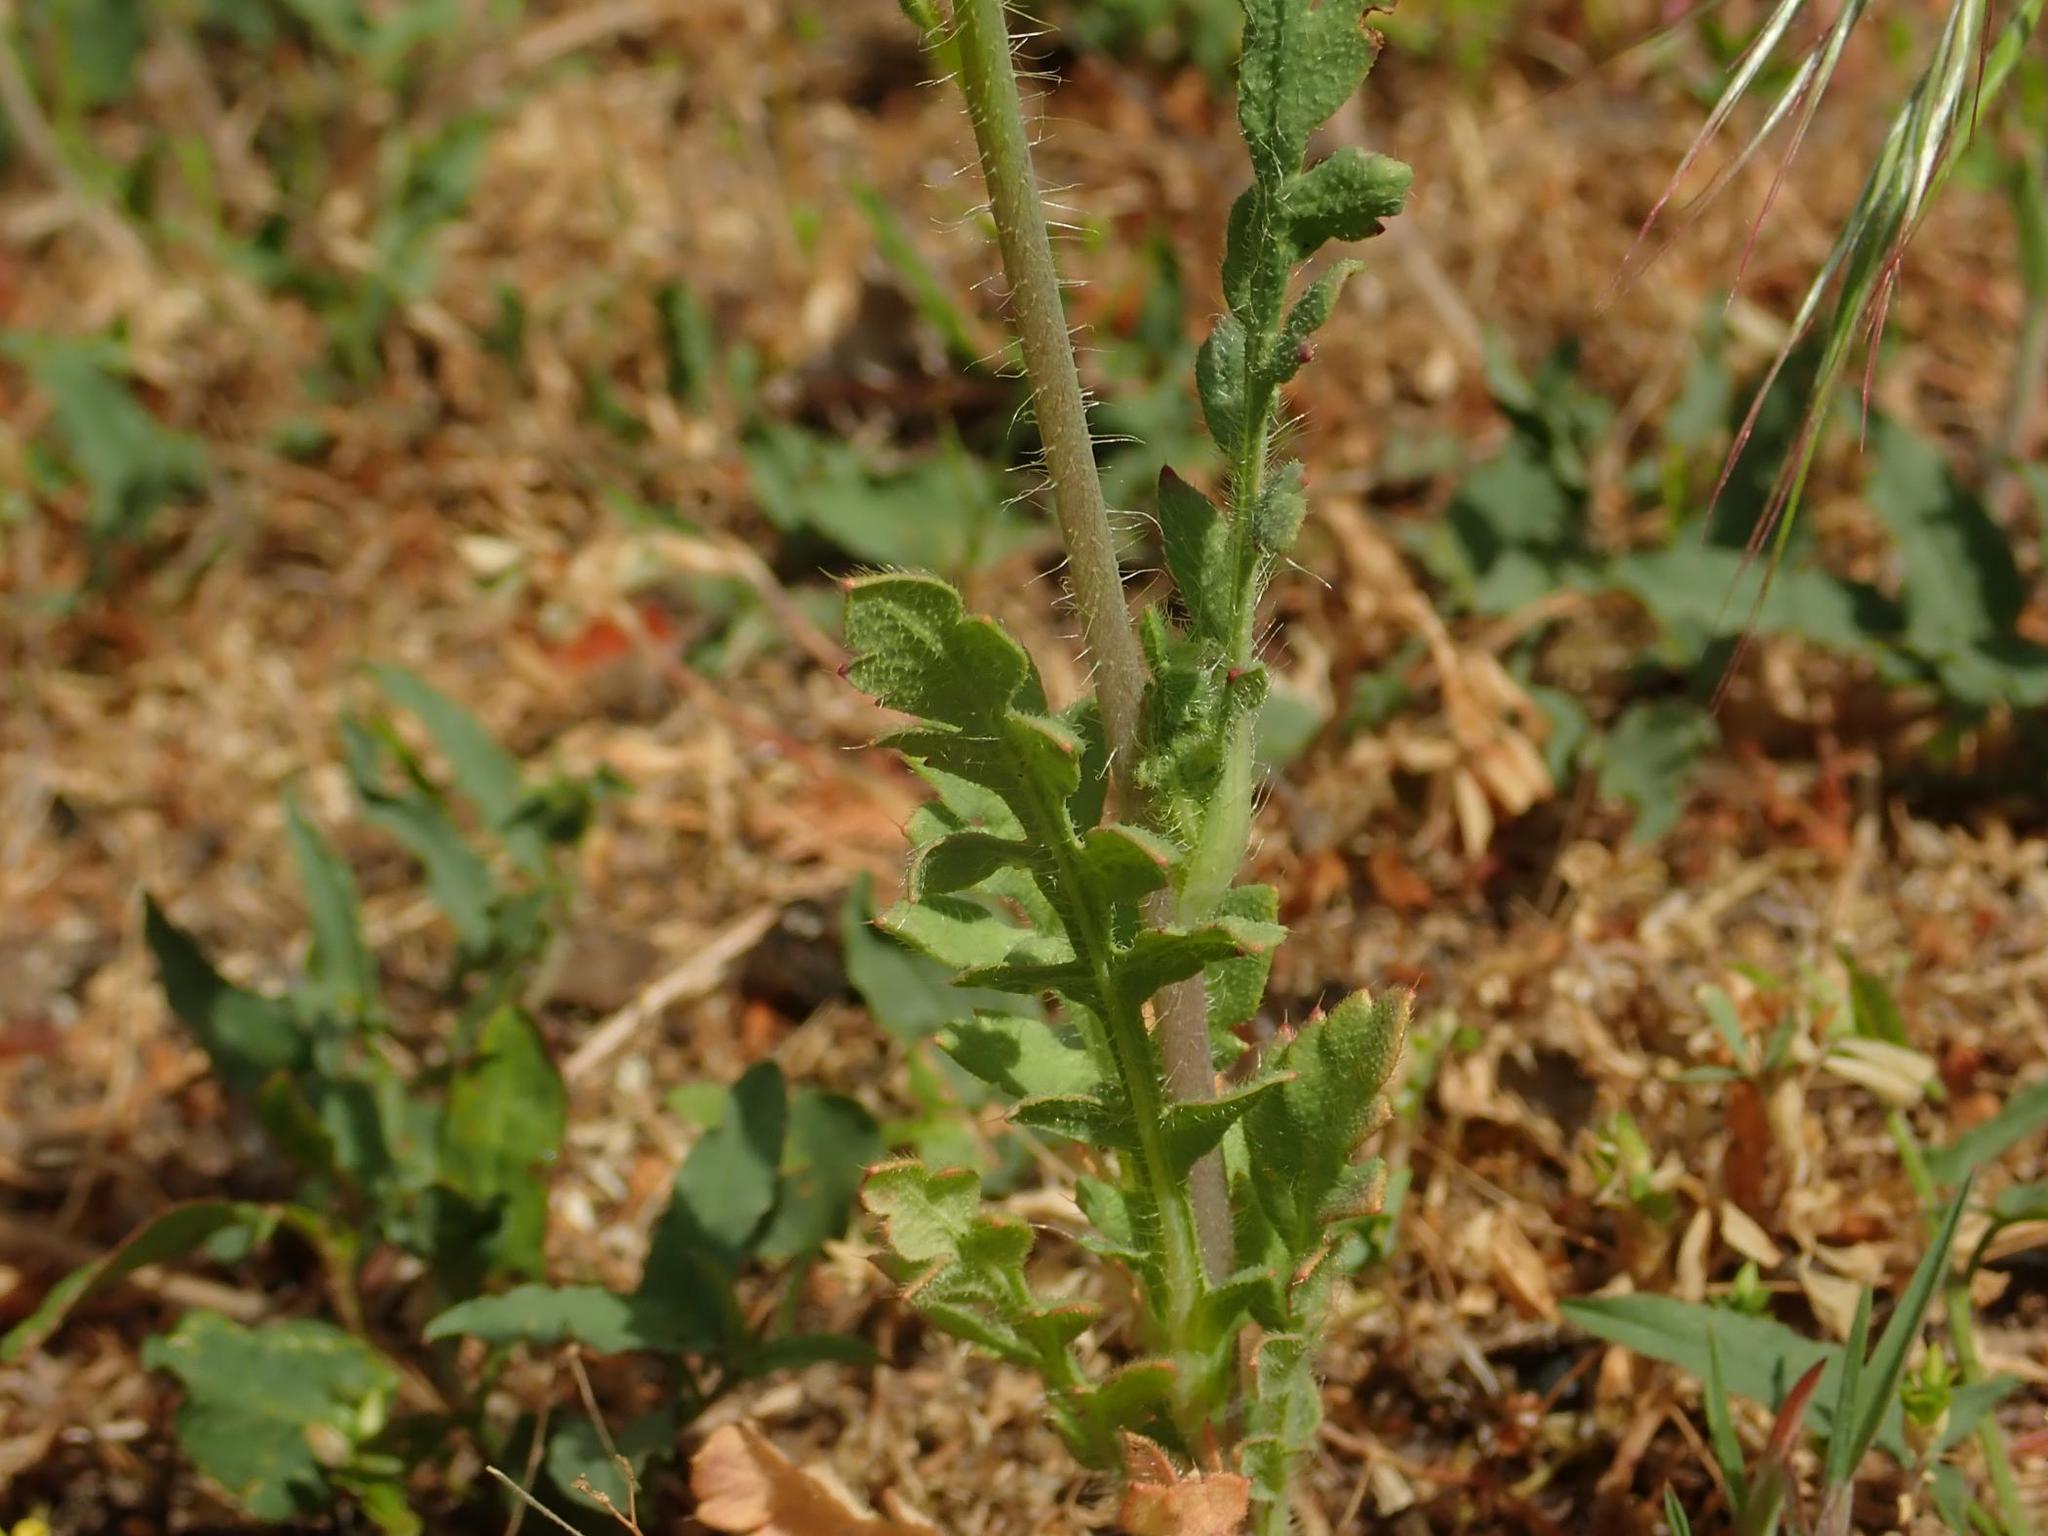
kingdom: Plantae
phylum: Tracheophyta
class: Magnoliopsida
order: Ranunculales
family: Papaveraceae
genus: Papaver
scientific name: Papaver rhoeas
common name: Corn poppy
